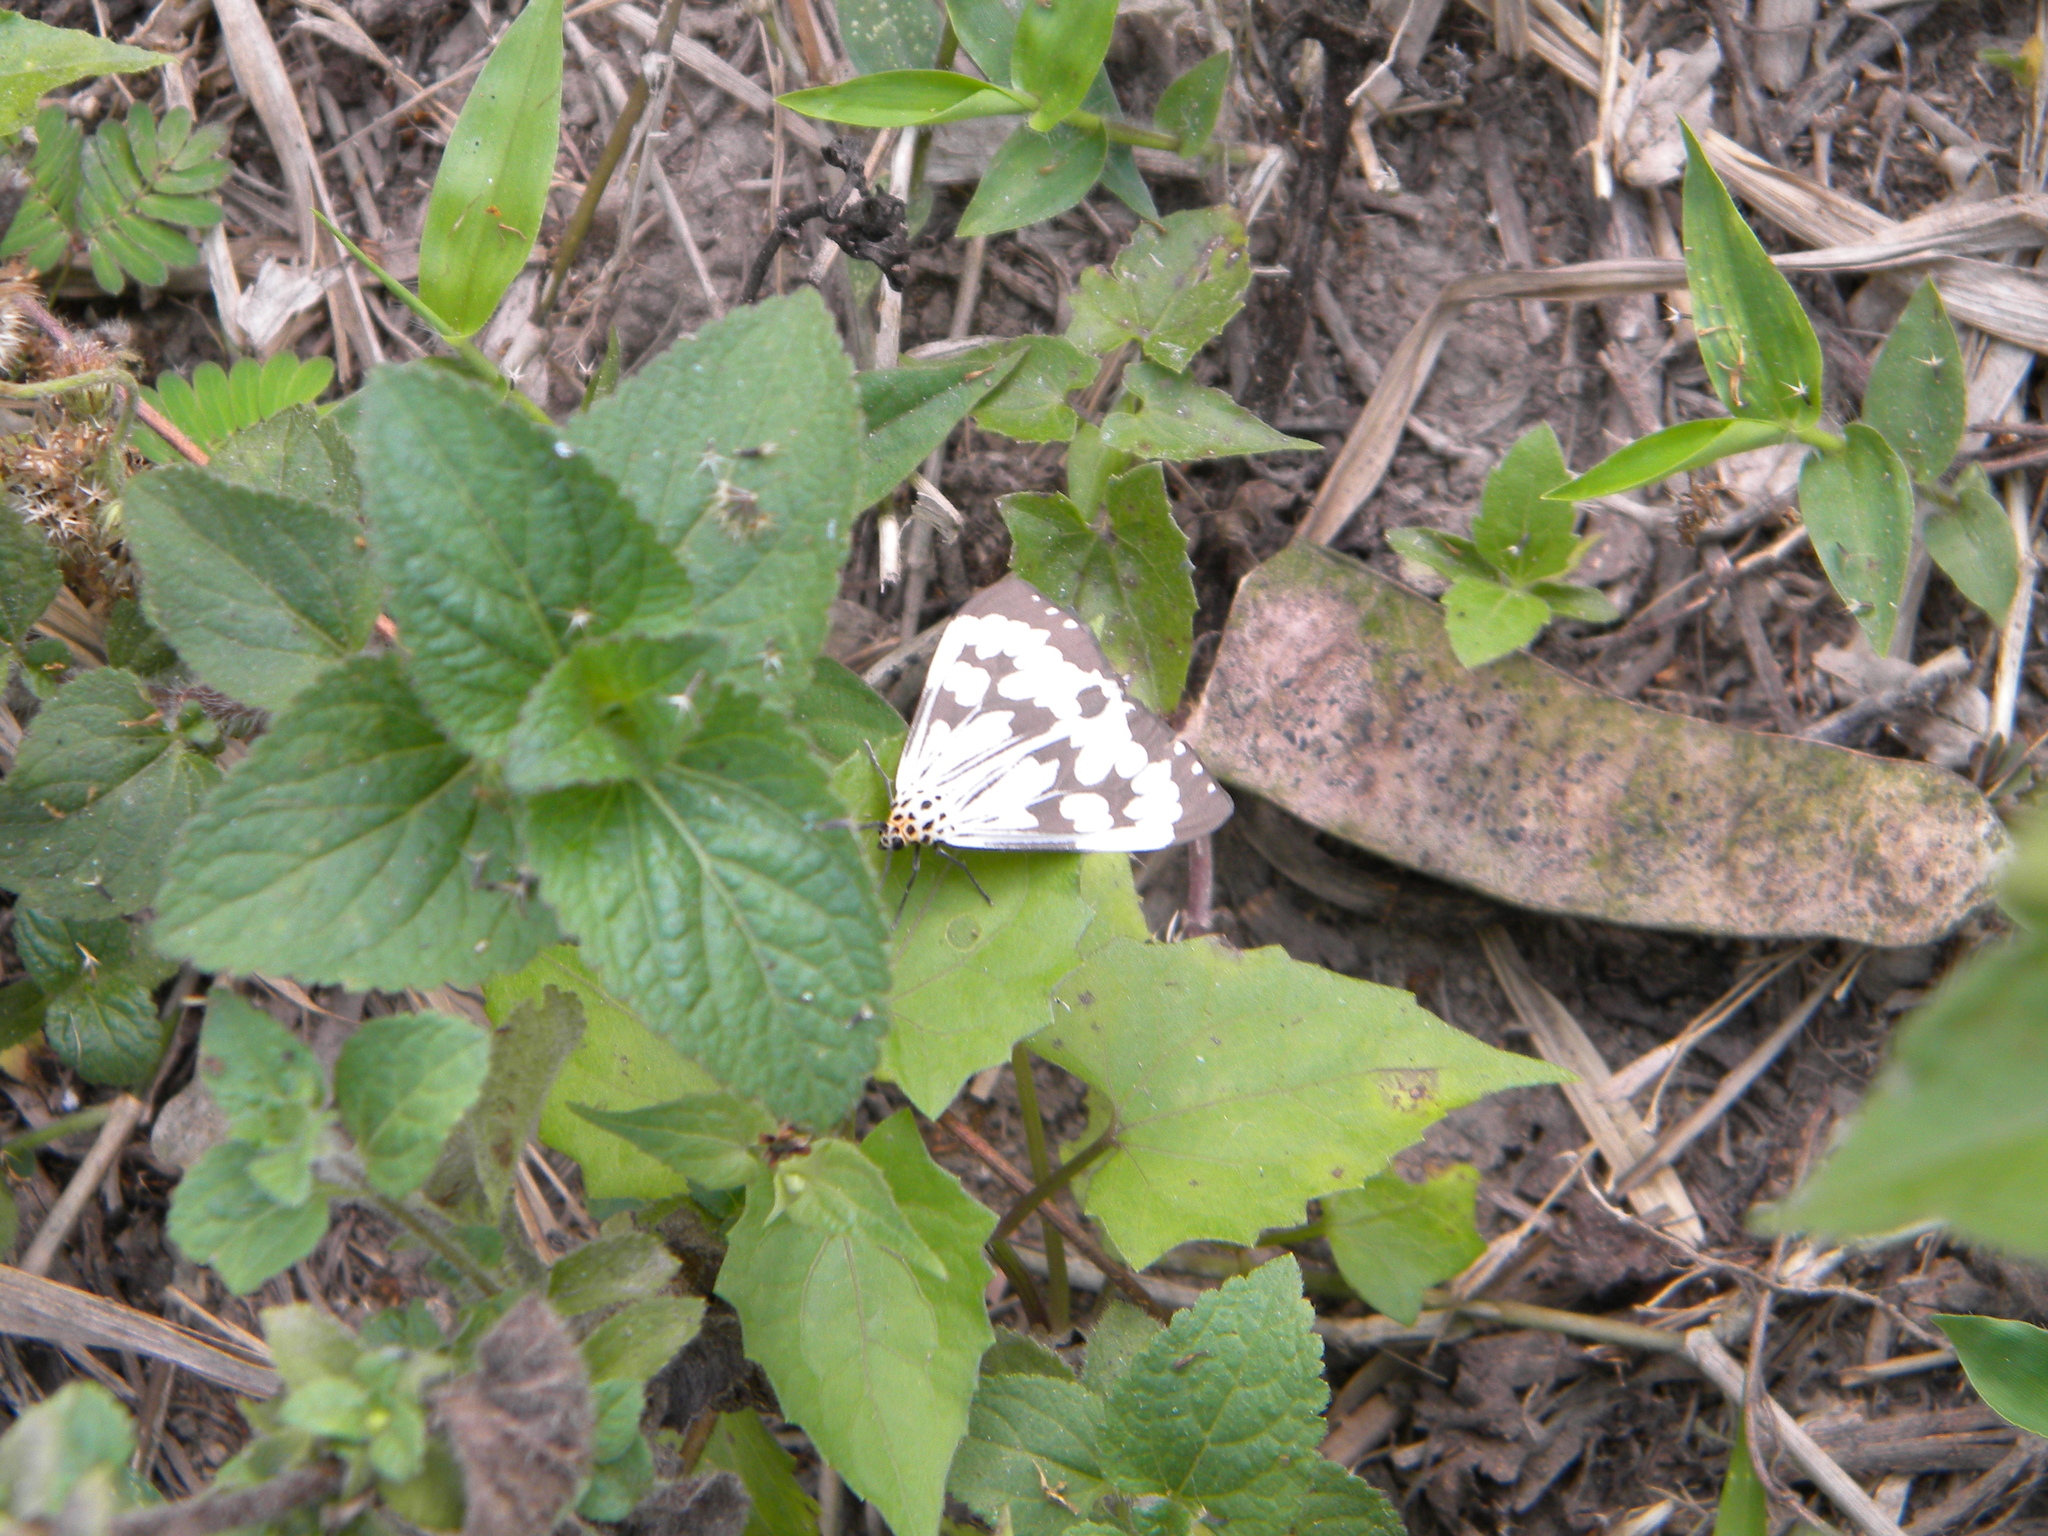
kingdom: Animalia
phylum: Arthropoda
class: Insecta
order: Lepidoptera
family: Erebidae
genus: Nyctemera
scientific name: Nyctemera adversata
